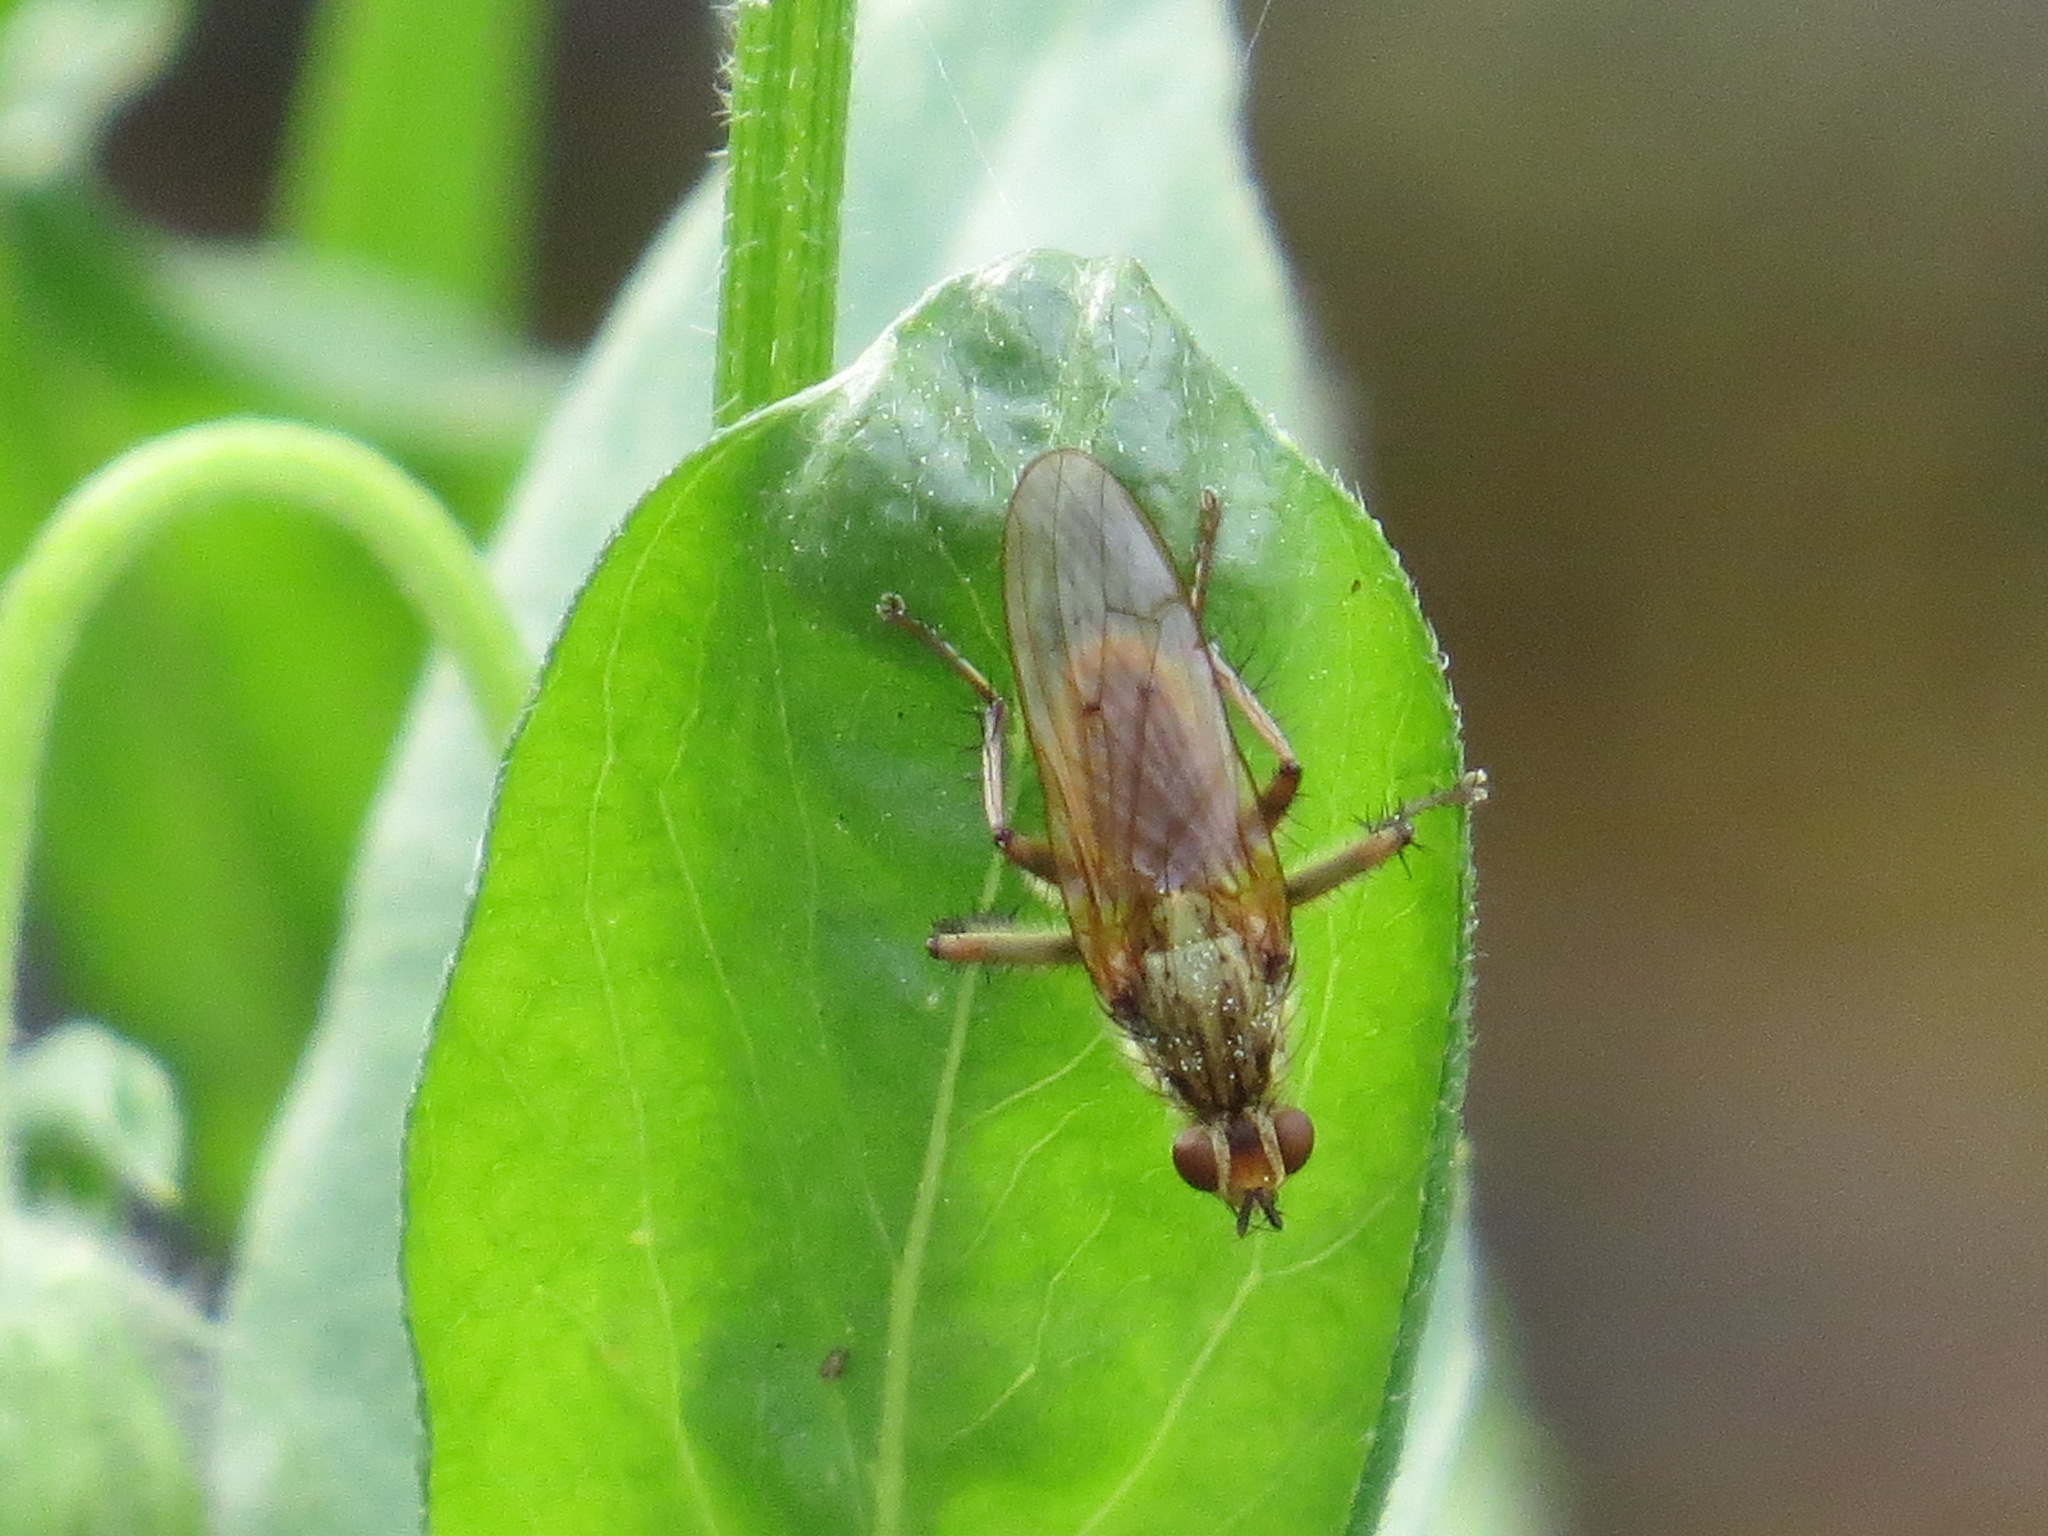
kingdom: Animalia
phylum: Arthropoda
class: Insecta
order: Diptera
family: Scathophagidae
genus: Scathophaga
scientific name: Scathophaga stercoraria
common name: Yellow dung fly
